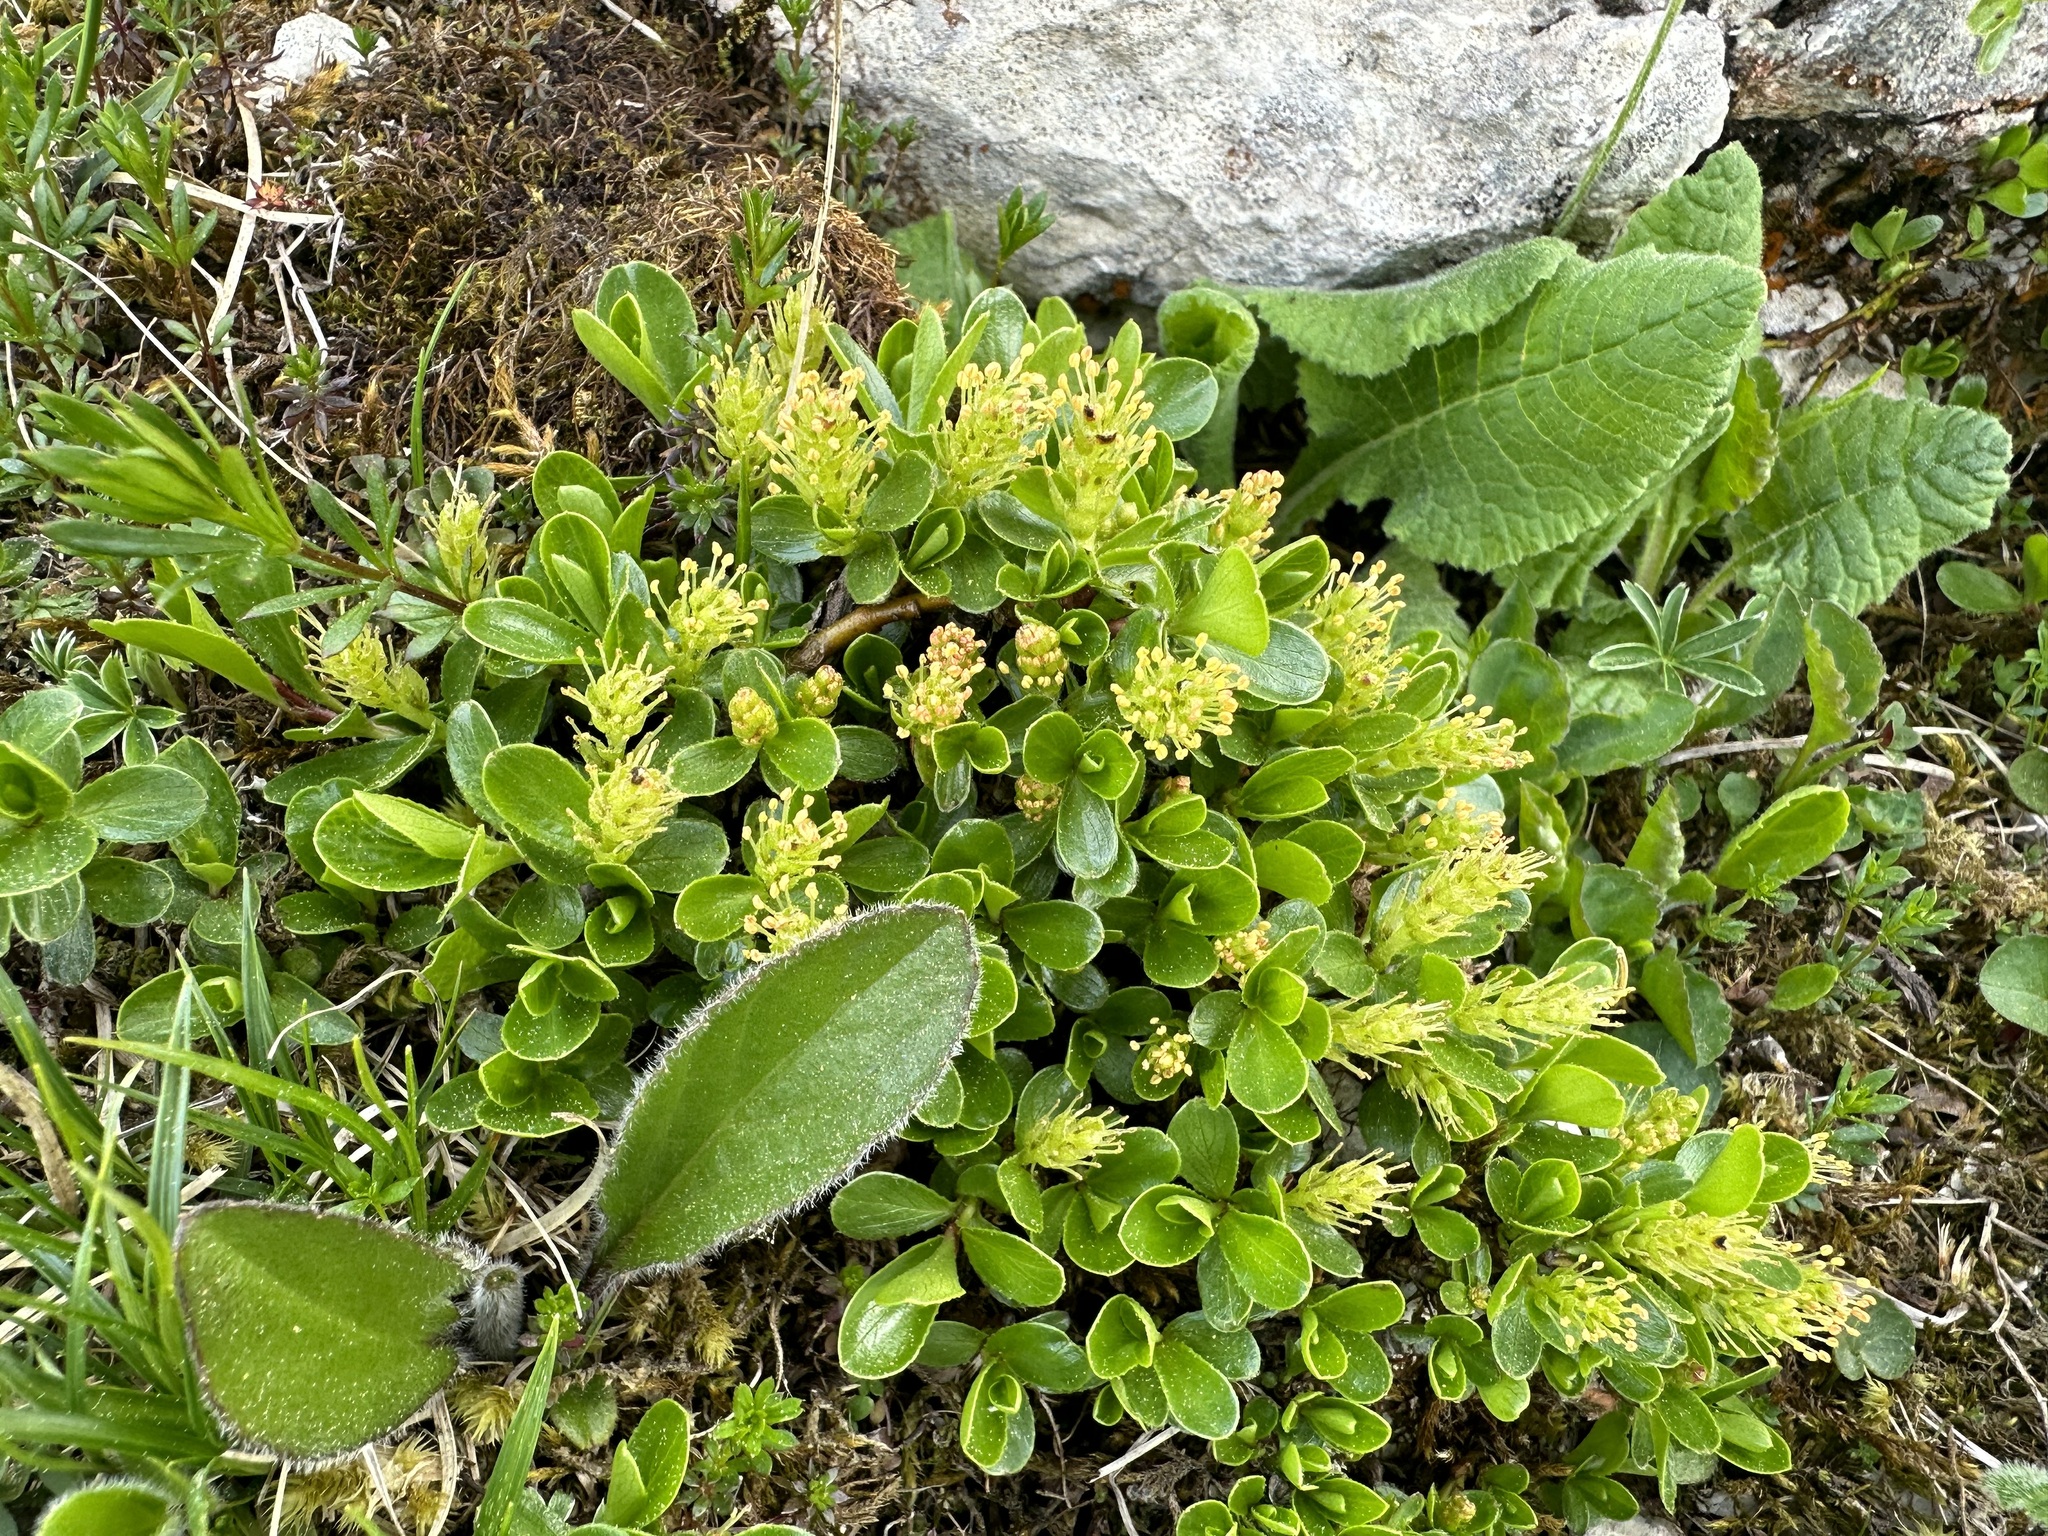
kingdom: Plantae
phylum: Tracheophyta
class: Magnoliopsida
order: Malpighiales
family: Salicaceae
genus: Salix
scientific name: Salix retusa
